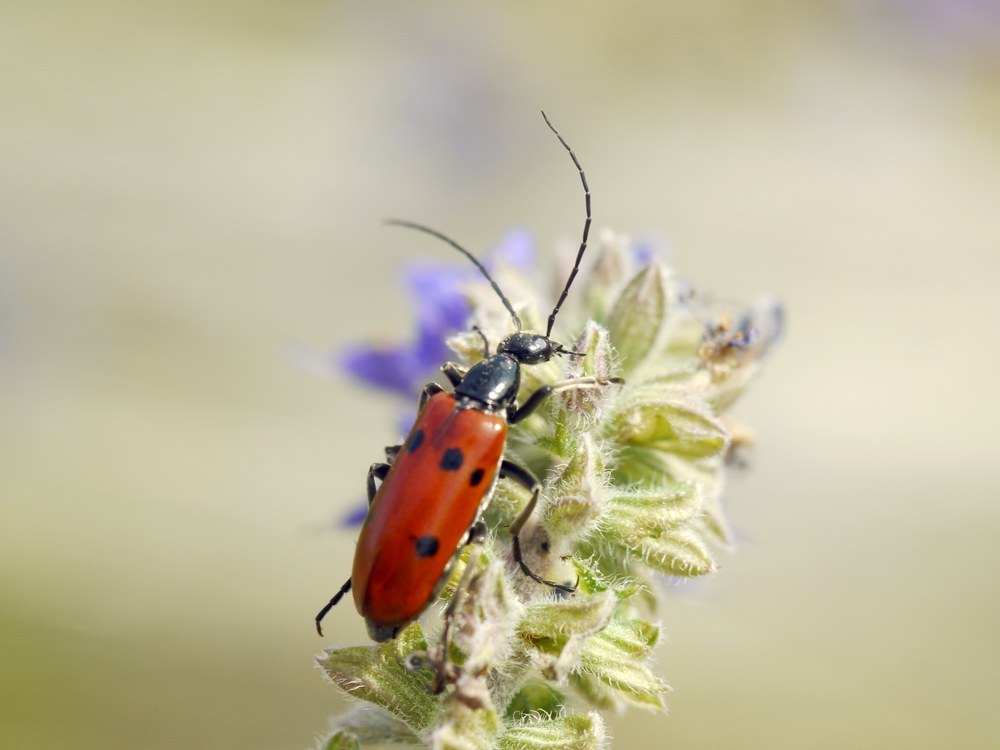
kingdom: Animalia
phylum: Arthropoda
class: Insecta
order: Coleoptera
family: Meloidae
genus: Stenodera
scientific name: Stenodera caucasica
